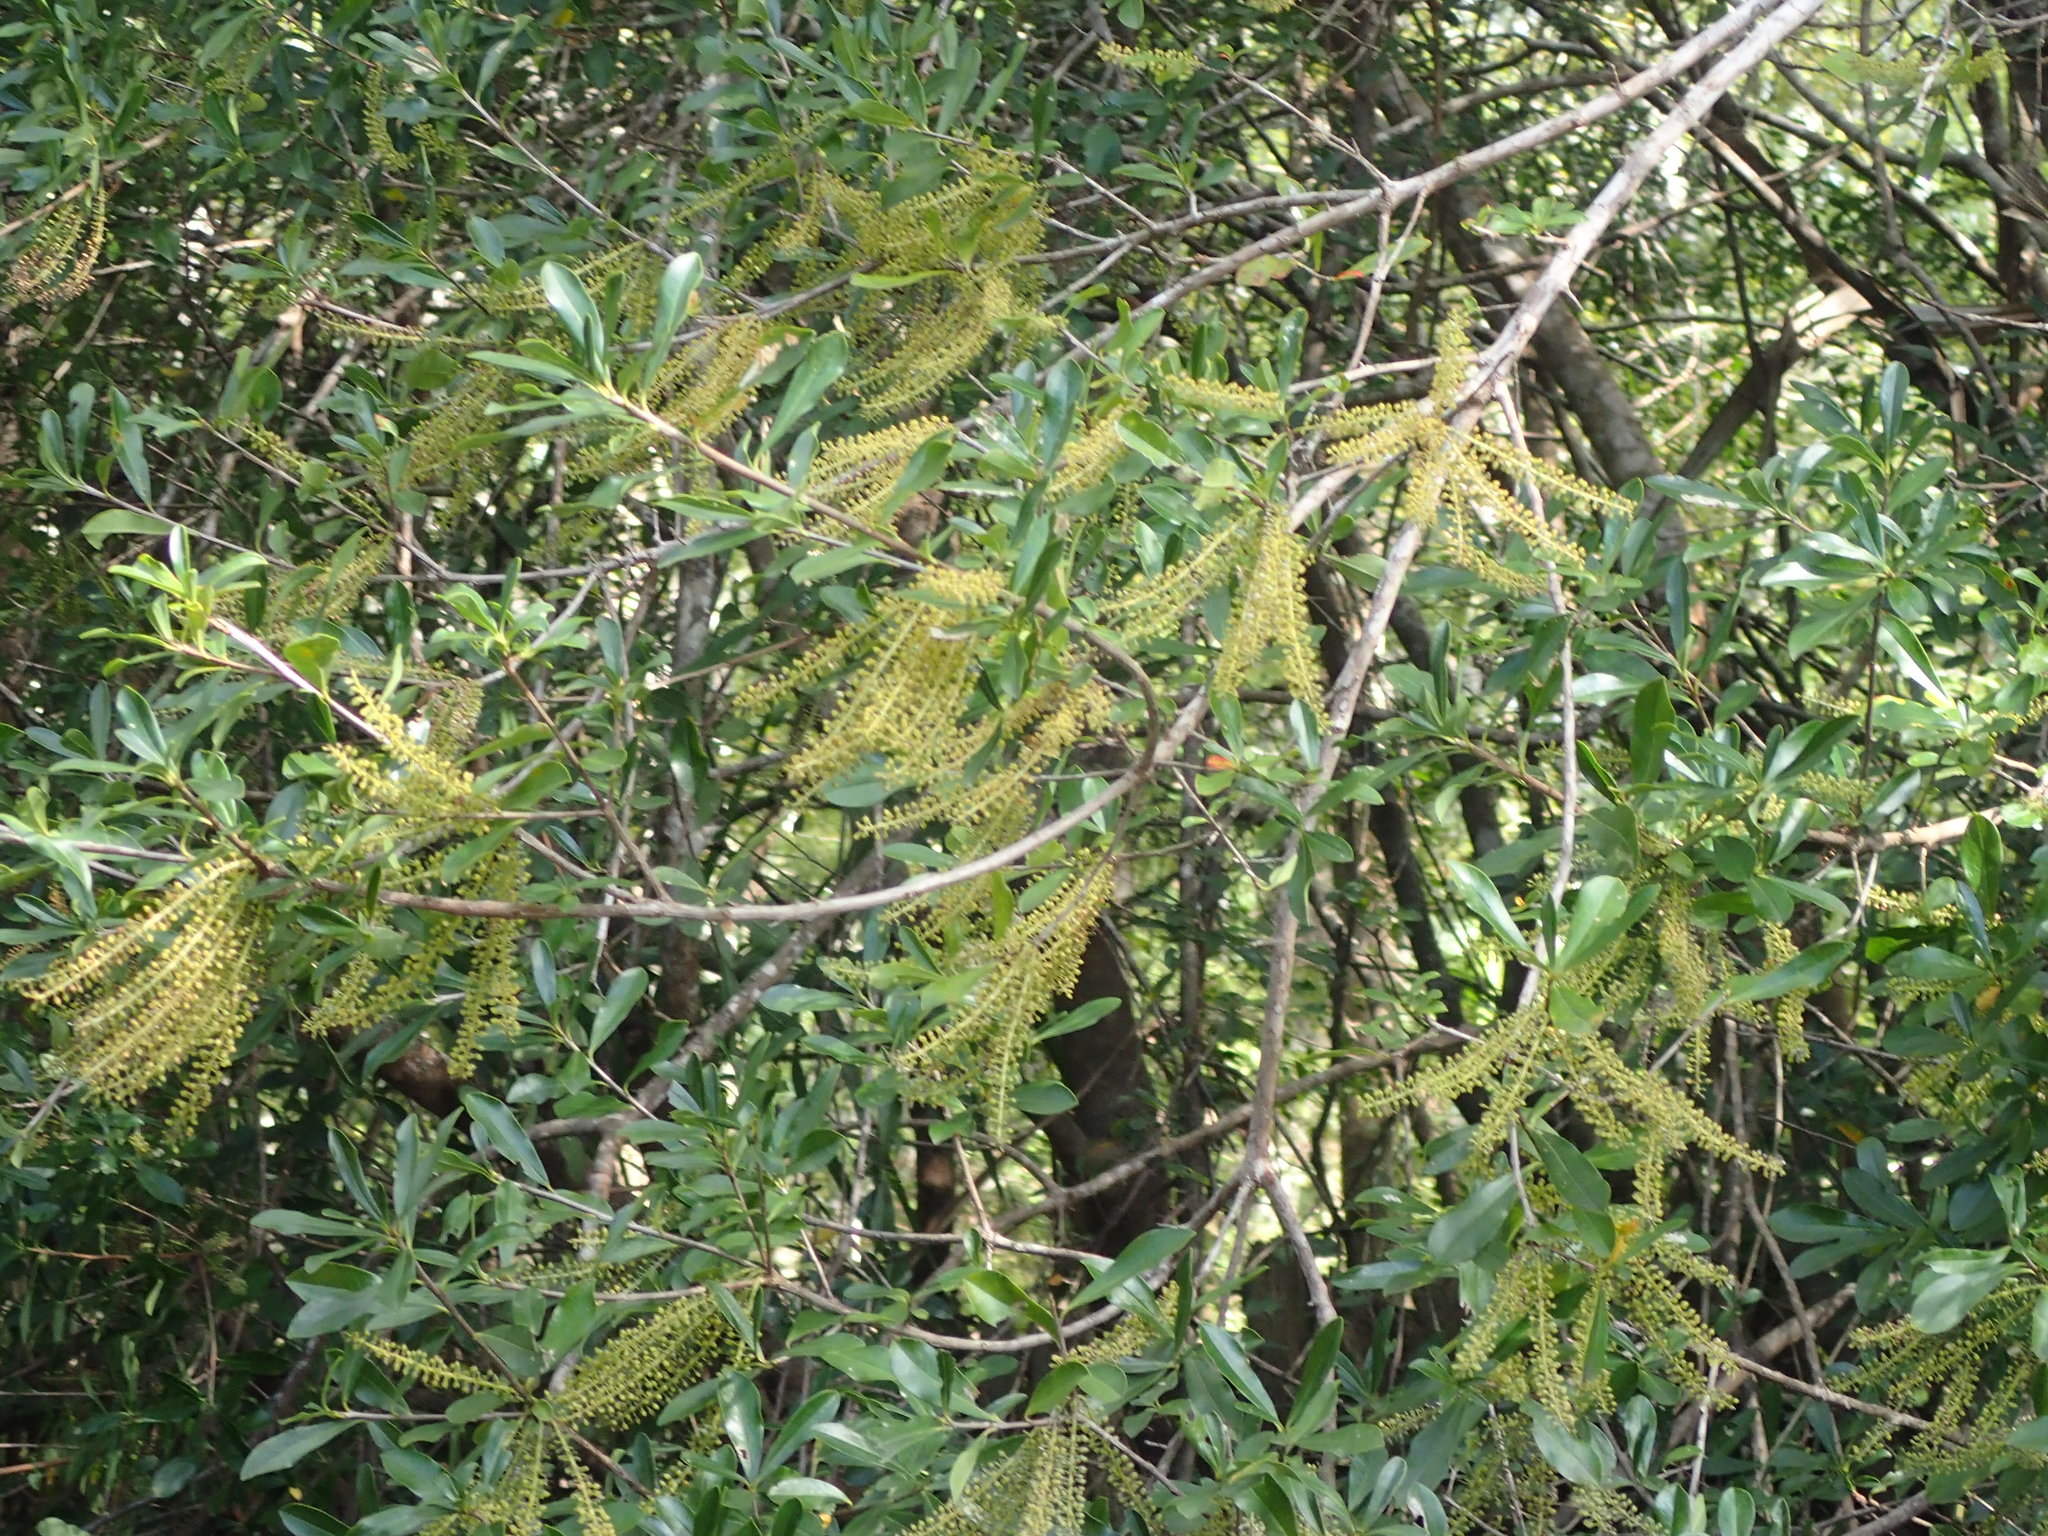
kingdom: Plantae
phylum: Tracheophyta
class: Magnoliopsida
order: Ericales
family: Cyrillaceae
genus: Cyrilla
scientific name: Cyrilla racemiflora
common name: Black titi
